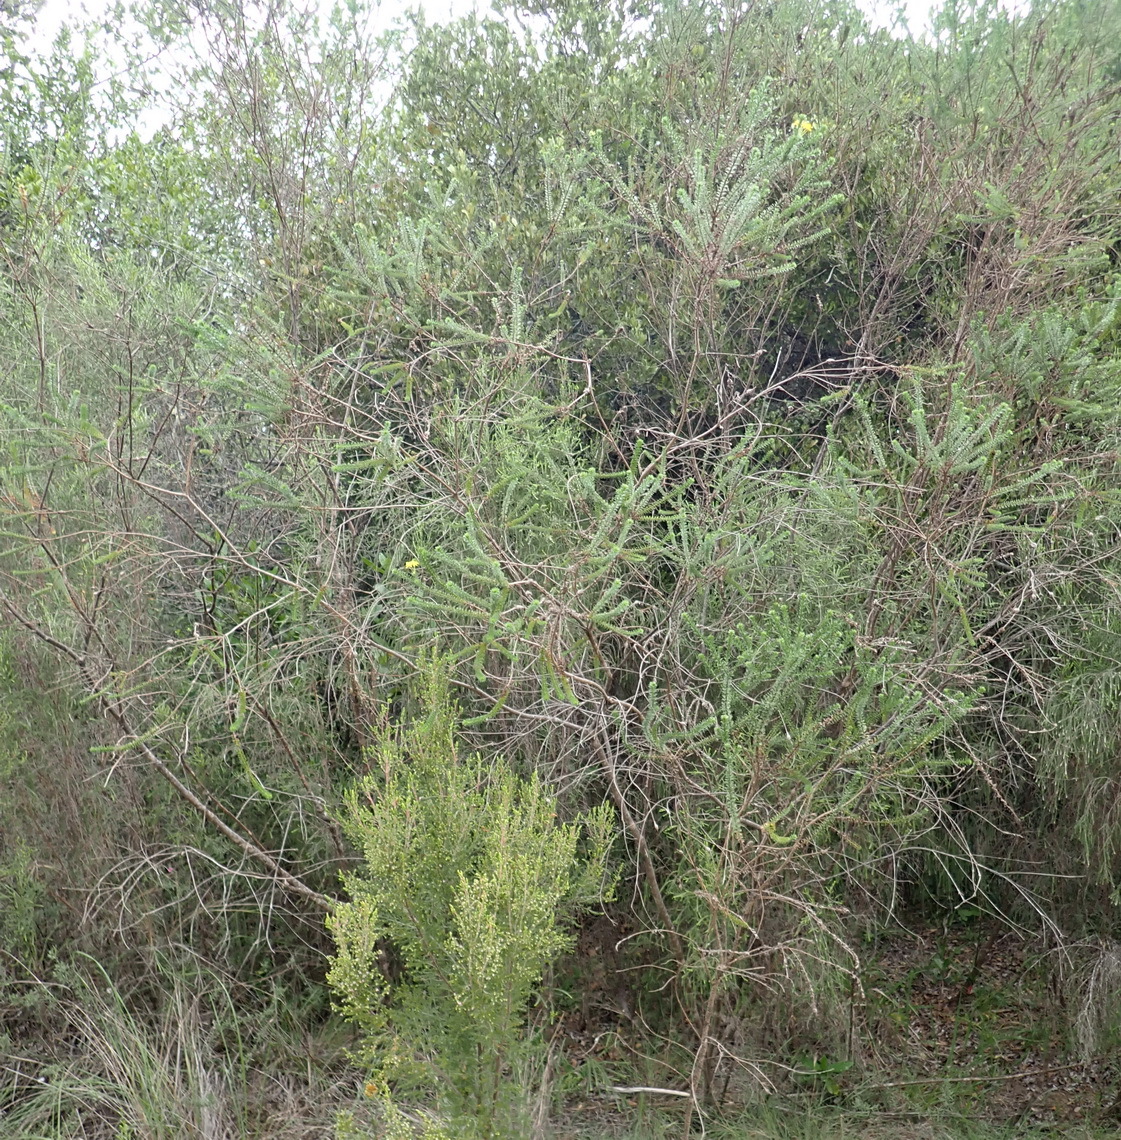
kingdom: Plantae
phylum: Tracheophyta
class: Magnoliopsida
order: Asterales
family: Asteraceae
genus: Euryops
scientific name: Euryops virgineus
